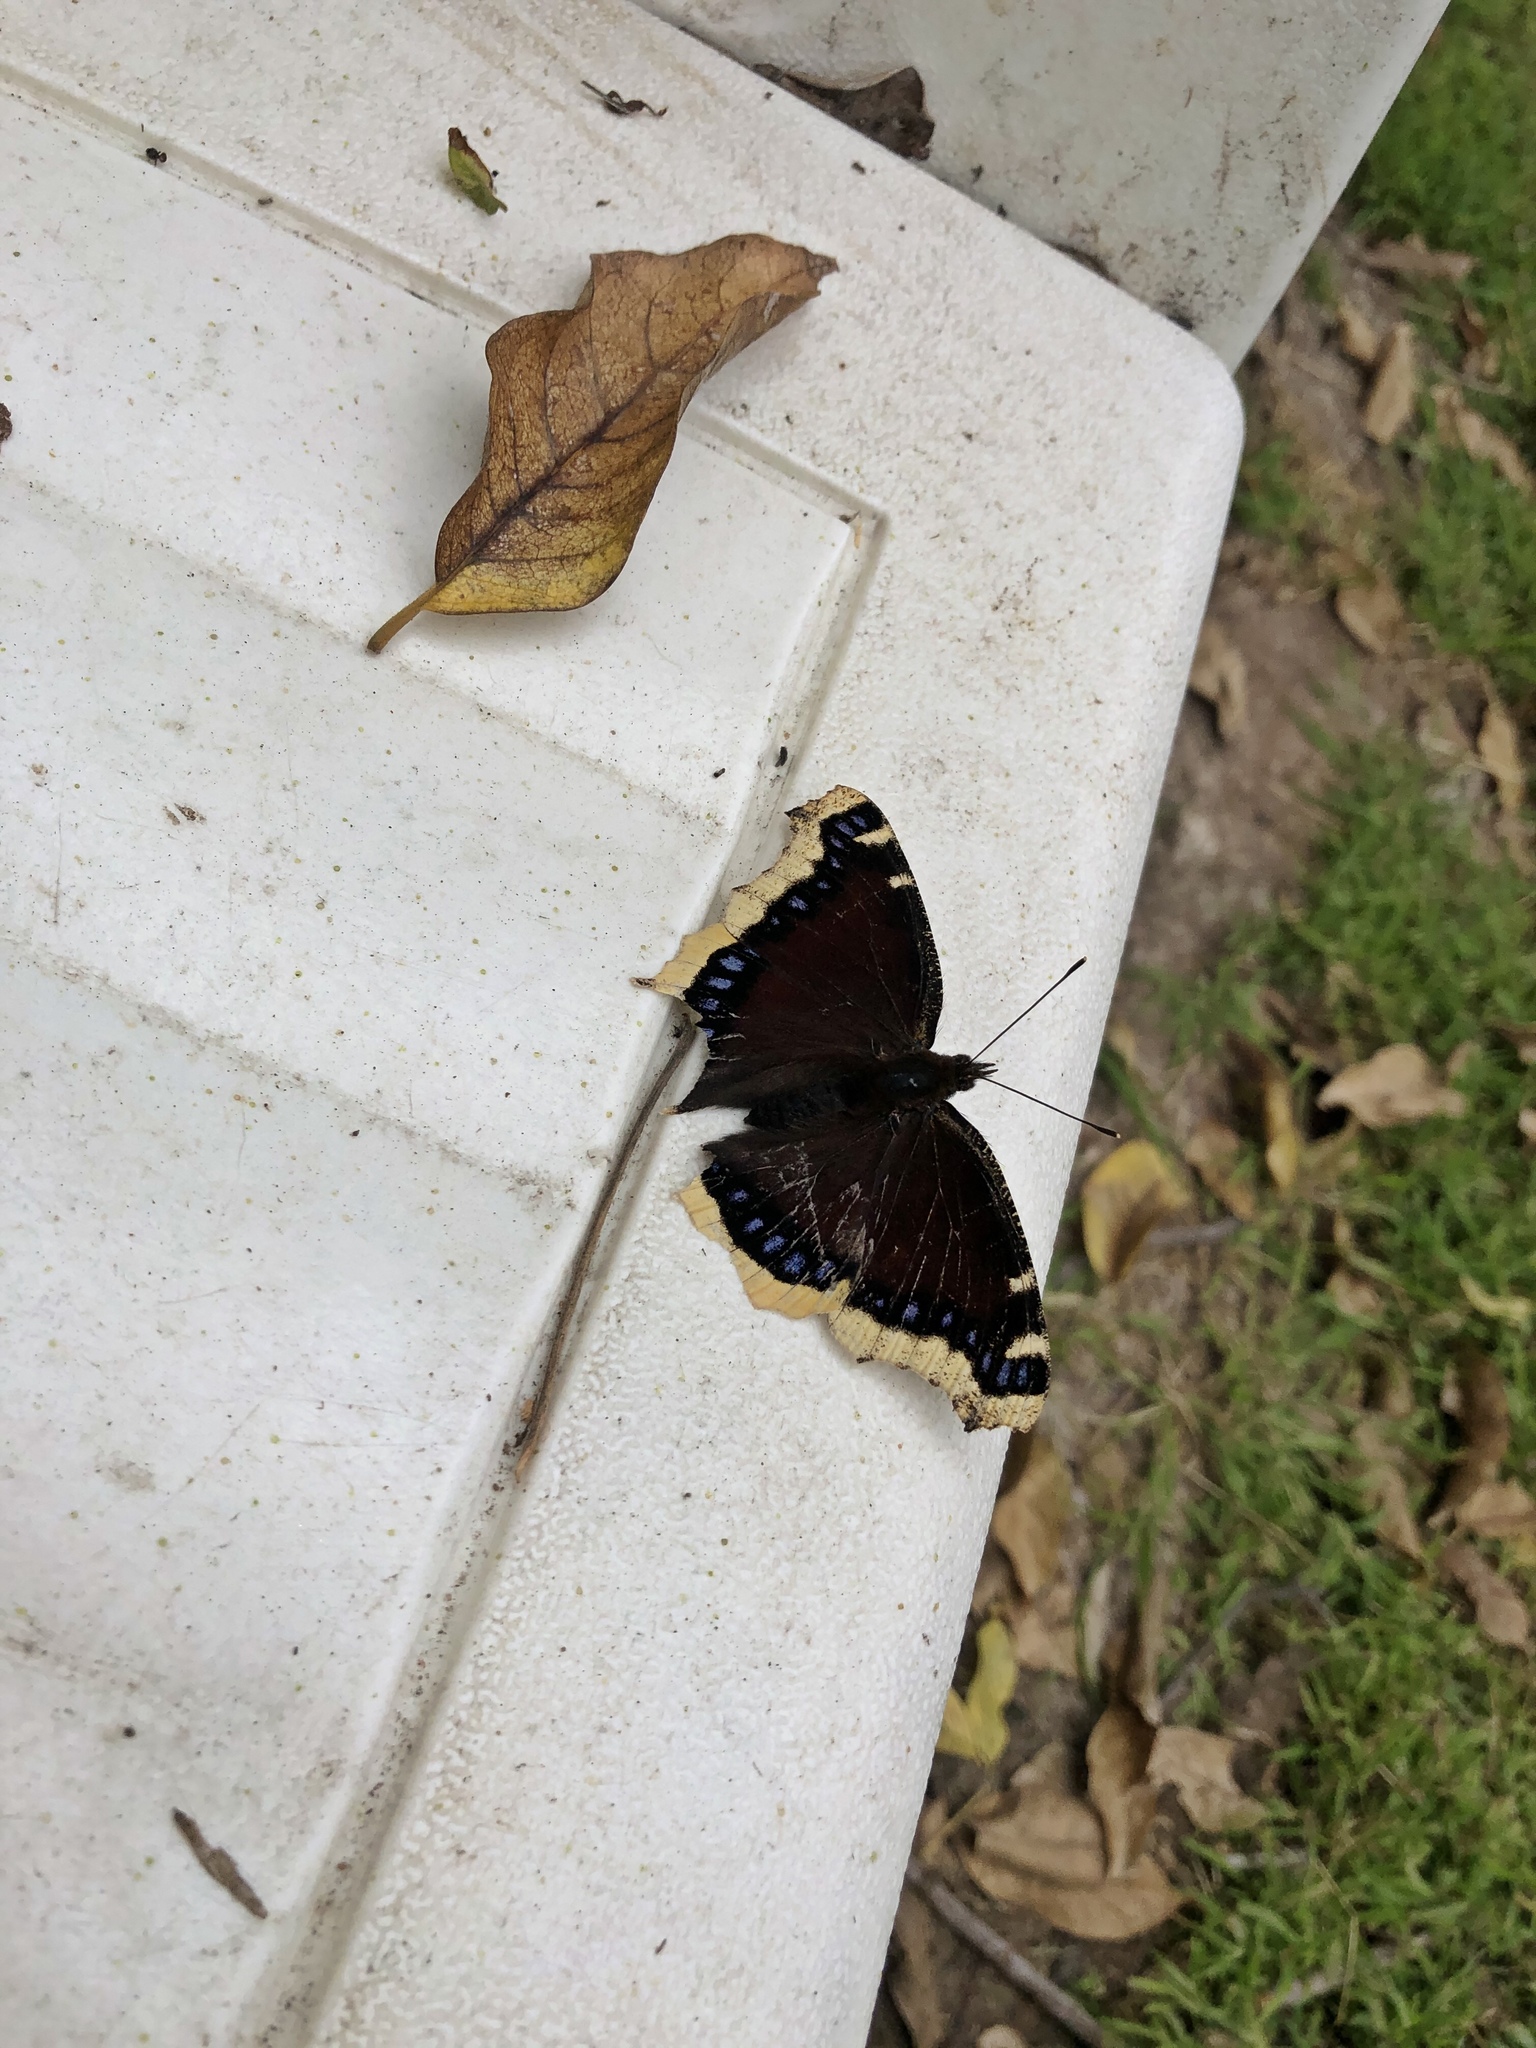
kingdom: Animalia
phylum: Arthropoda
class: Insecta
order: Lepidoptera
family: Nymphalidae
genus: Nymphalis
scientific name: Nymphalis antiopa
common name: Camberwell beauty
